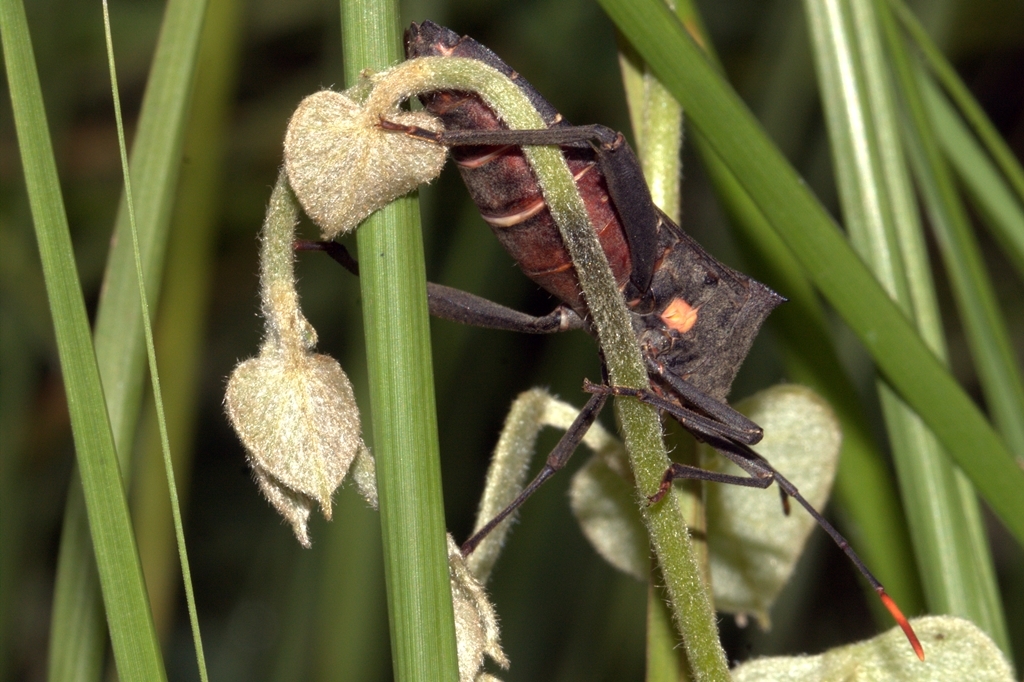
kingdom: Animalia
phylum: Arthropoda
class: Insecta
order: Hemiptera
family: Coreidae
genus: Anoplocnemis
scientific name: Anoplocnemis curvipes
